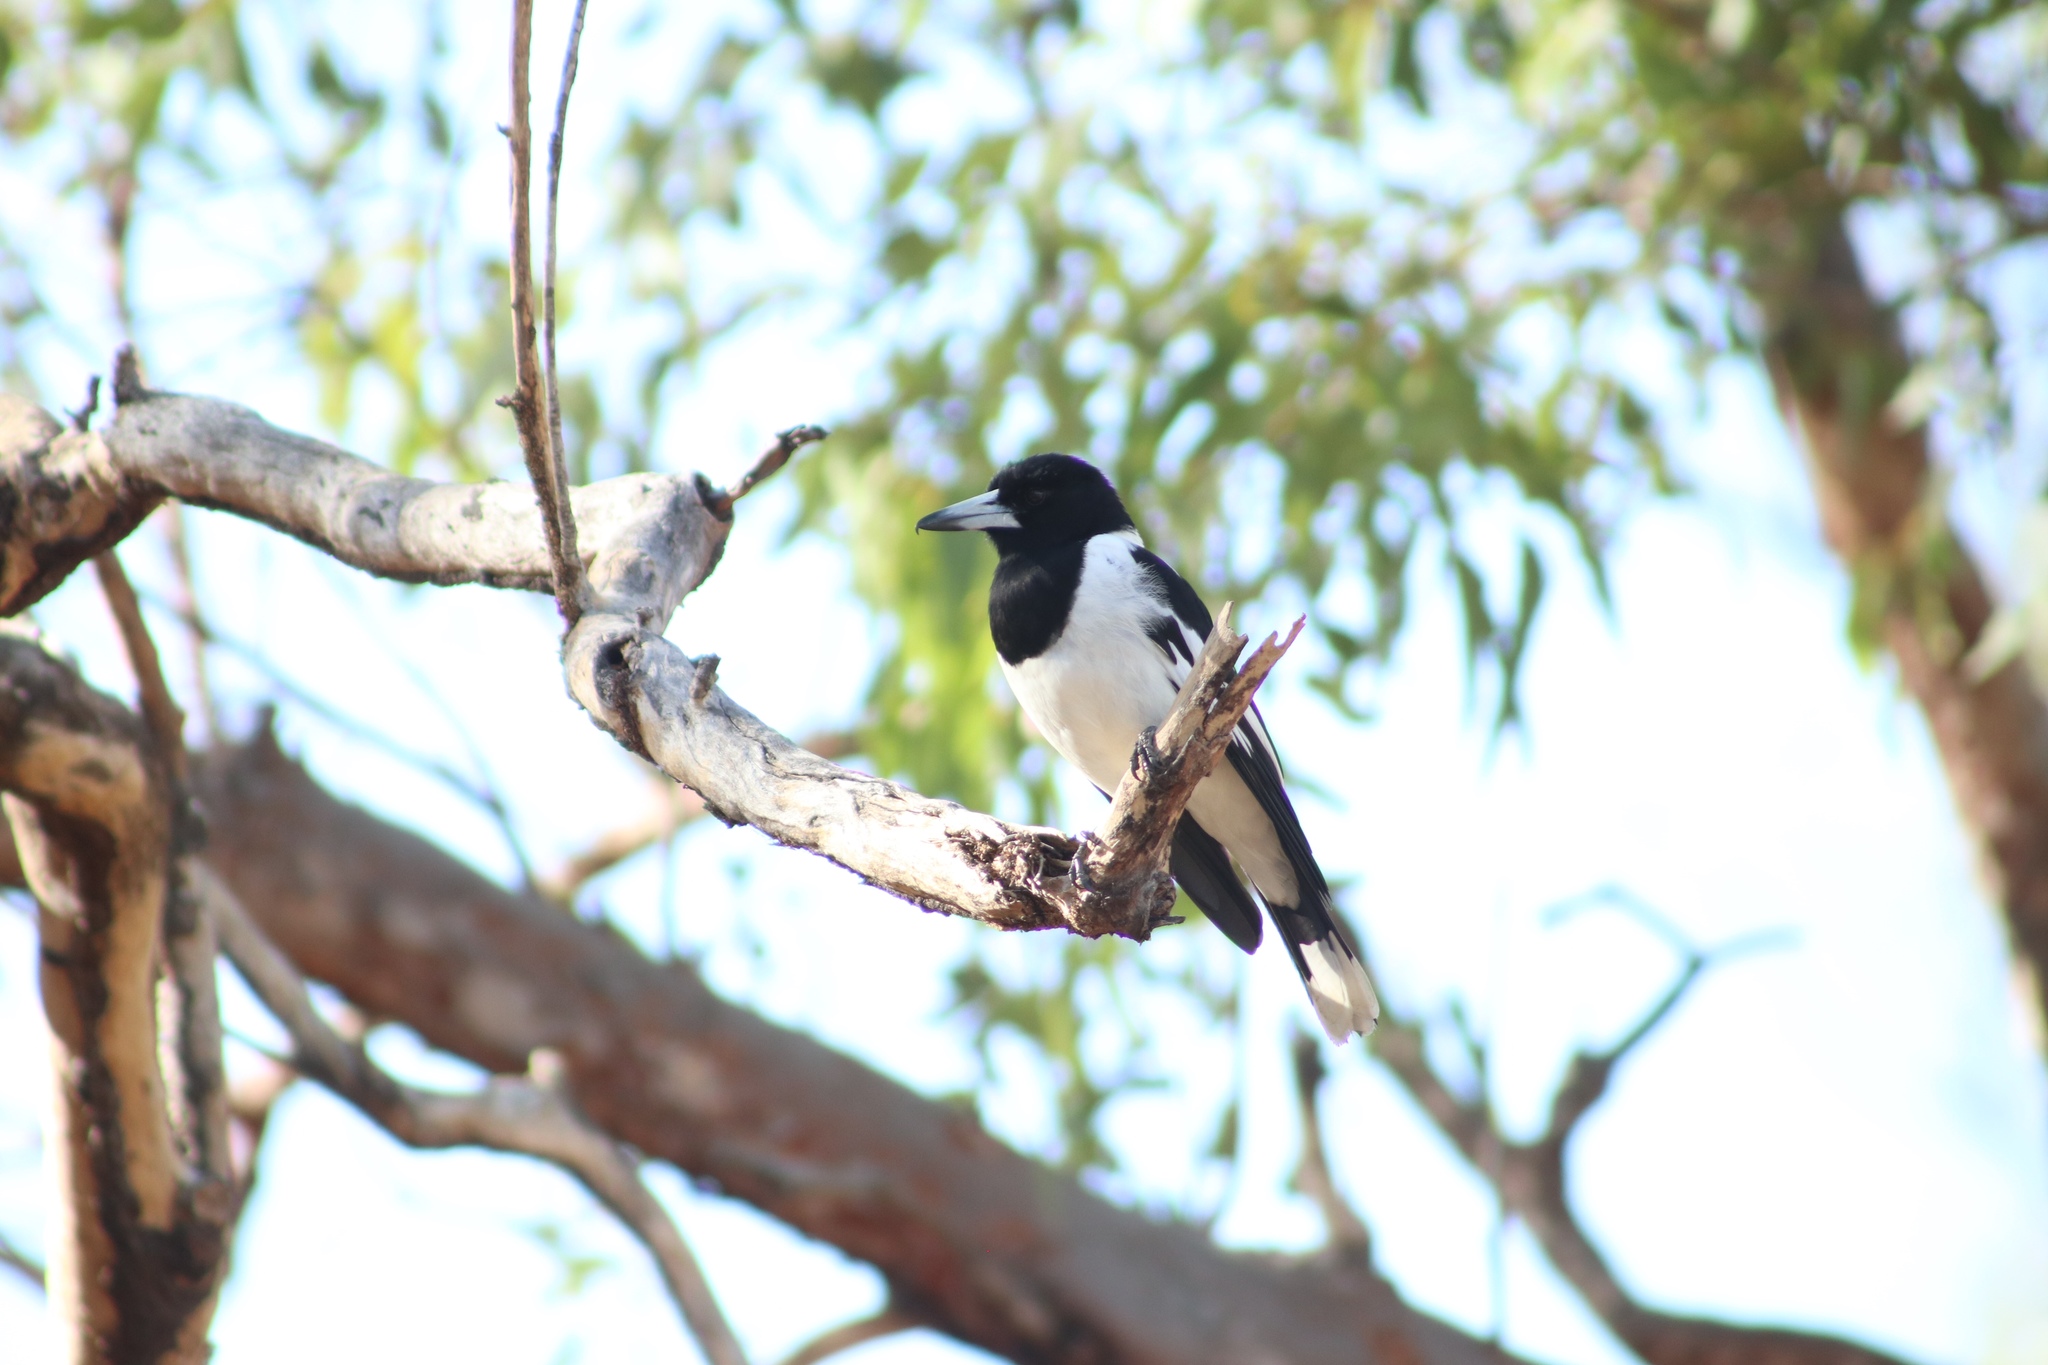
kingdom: Animalia
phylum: Chordata
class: Aves
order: Passeriformes
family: Cracticidae
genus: Cracticus
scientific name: Cracticus nigrogularis
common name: Pied butcherbird
